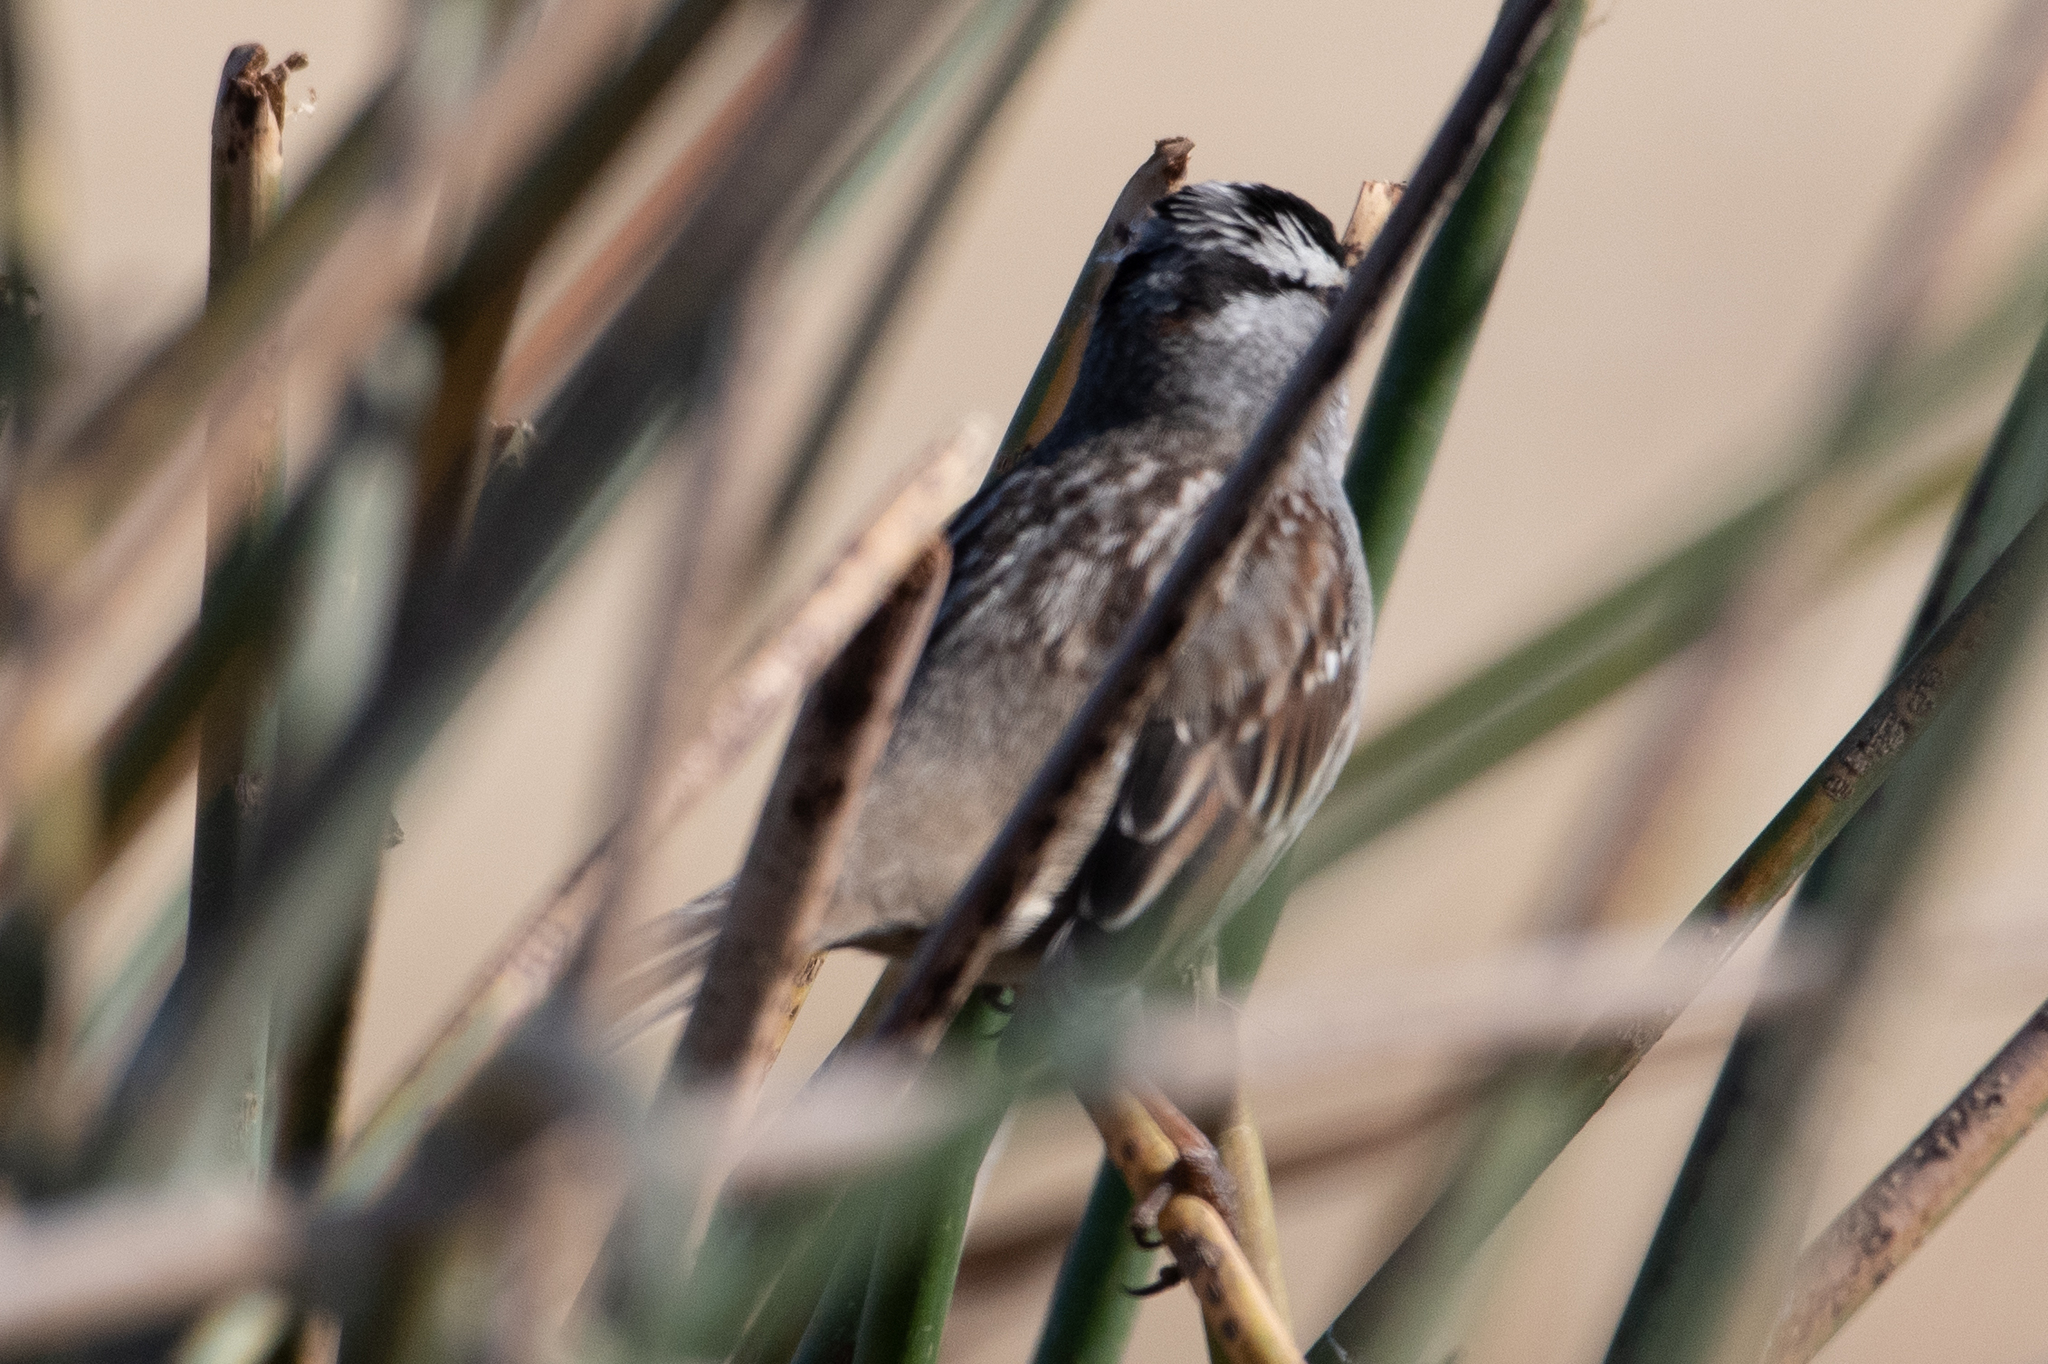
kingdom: Animalia
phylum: Chordata
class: Aves
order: Passeriformes
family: Passerellidae
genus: Zonotrichia
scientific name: Zonotrichia leucophrys
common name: White-crowned sparrow
